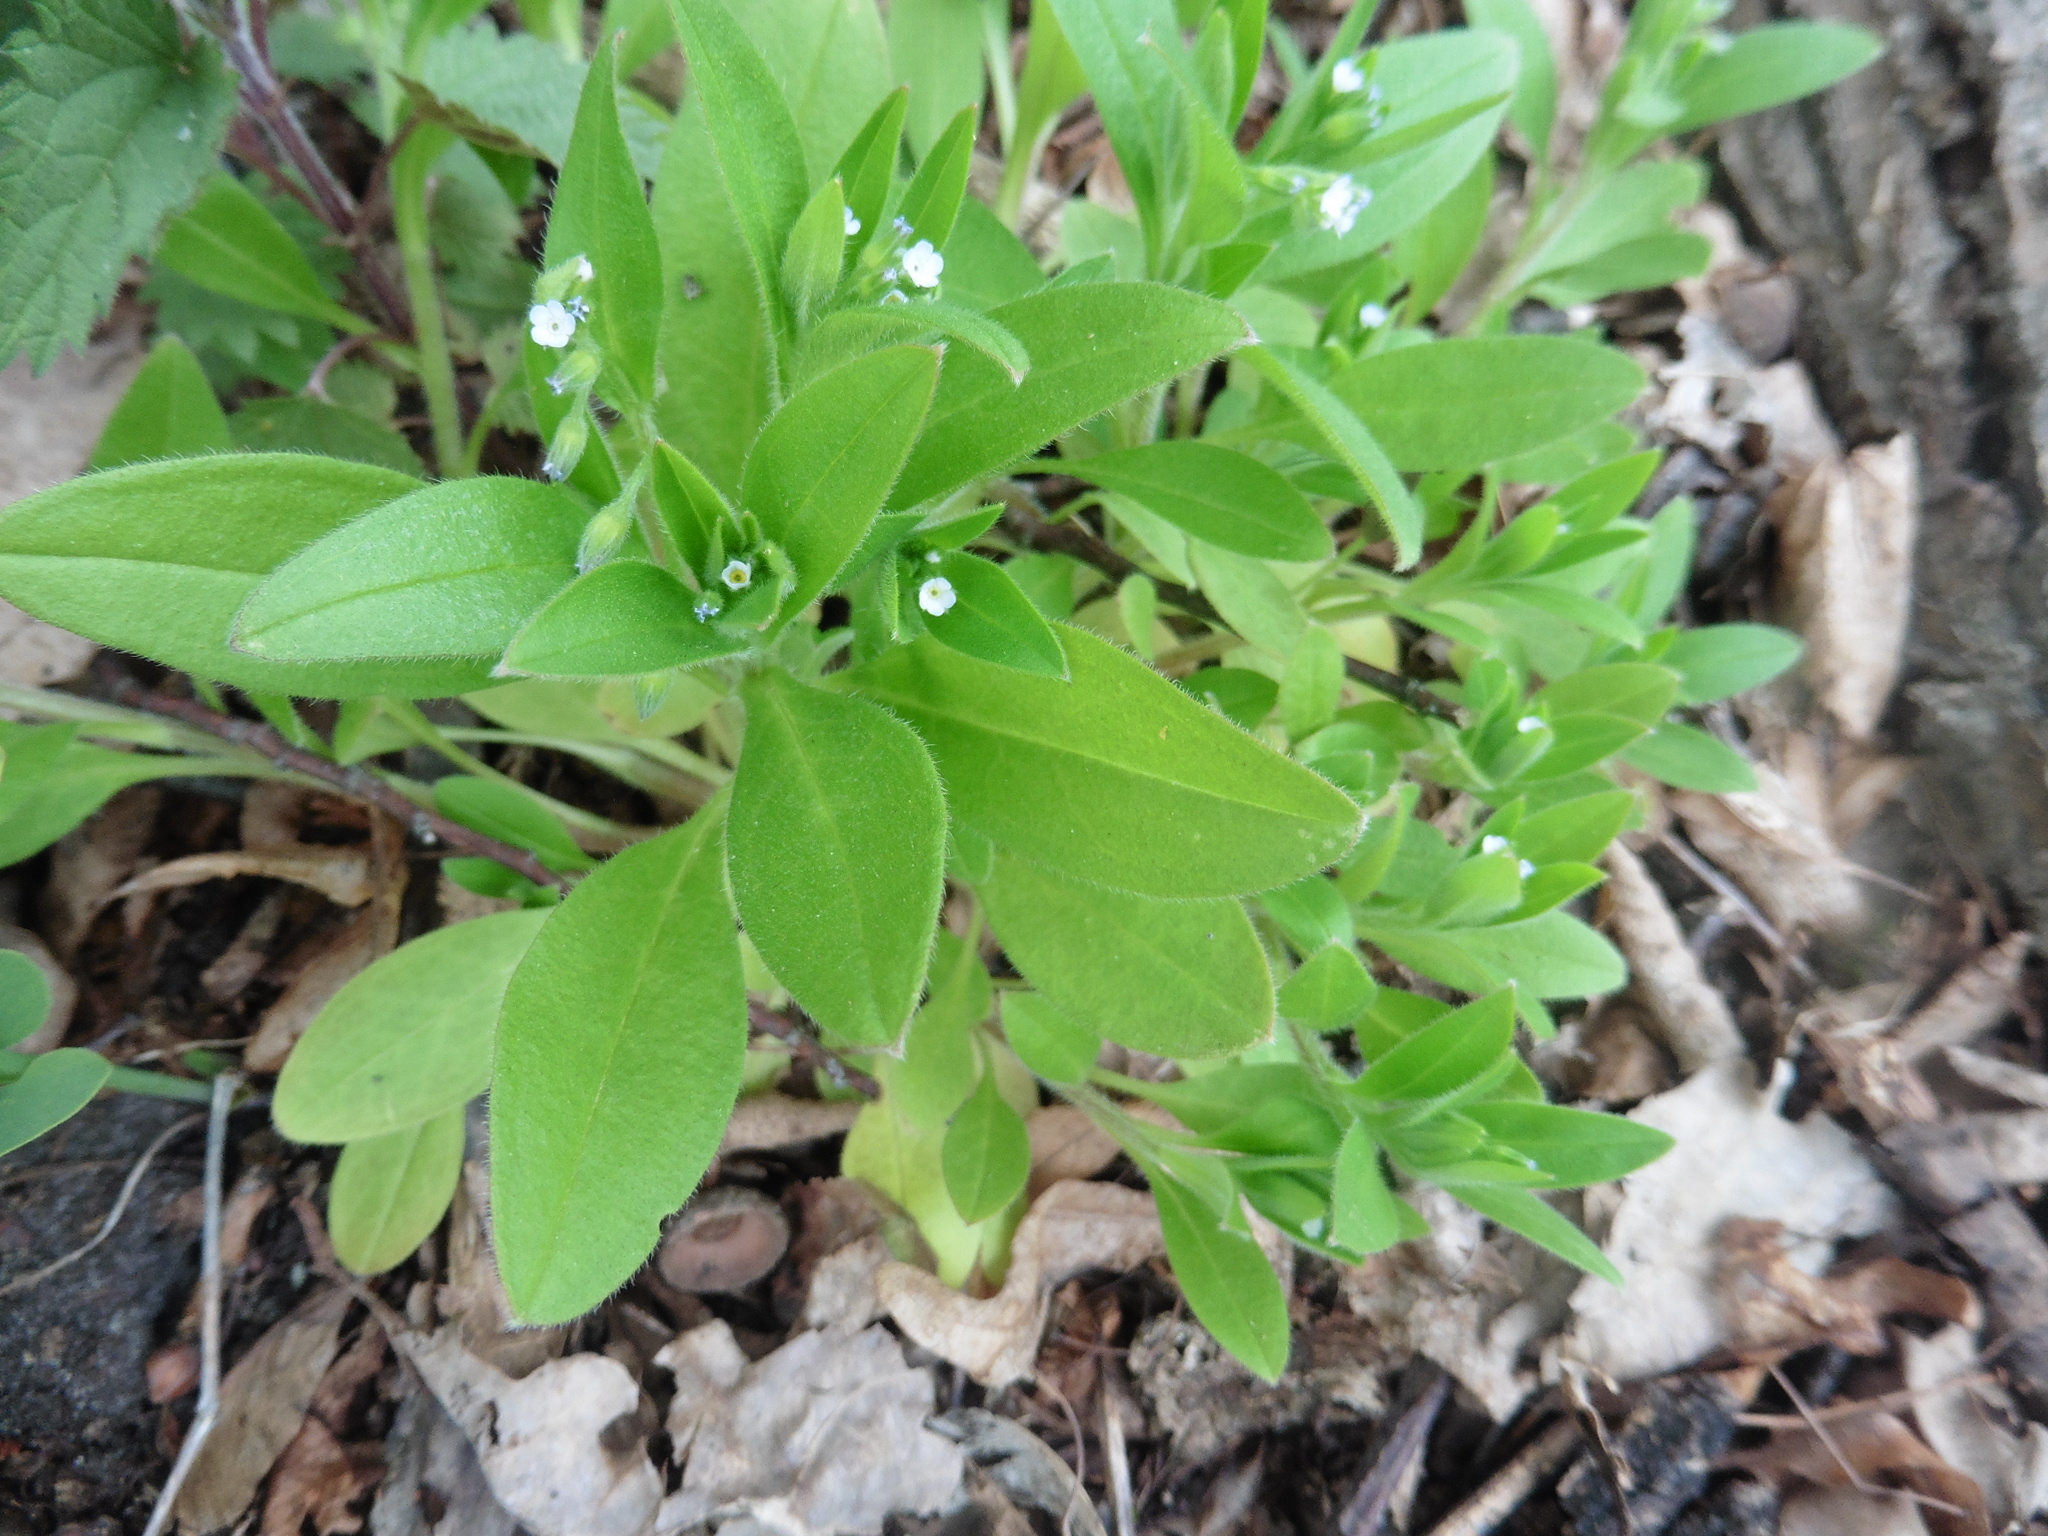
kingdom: Plantae
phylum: Tracheophyta
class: Magnoliopsida
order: Boraginales
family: Boraginaceae
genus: Myosotis
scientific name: Myosotis sparsiflora
